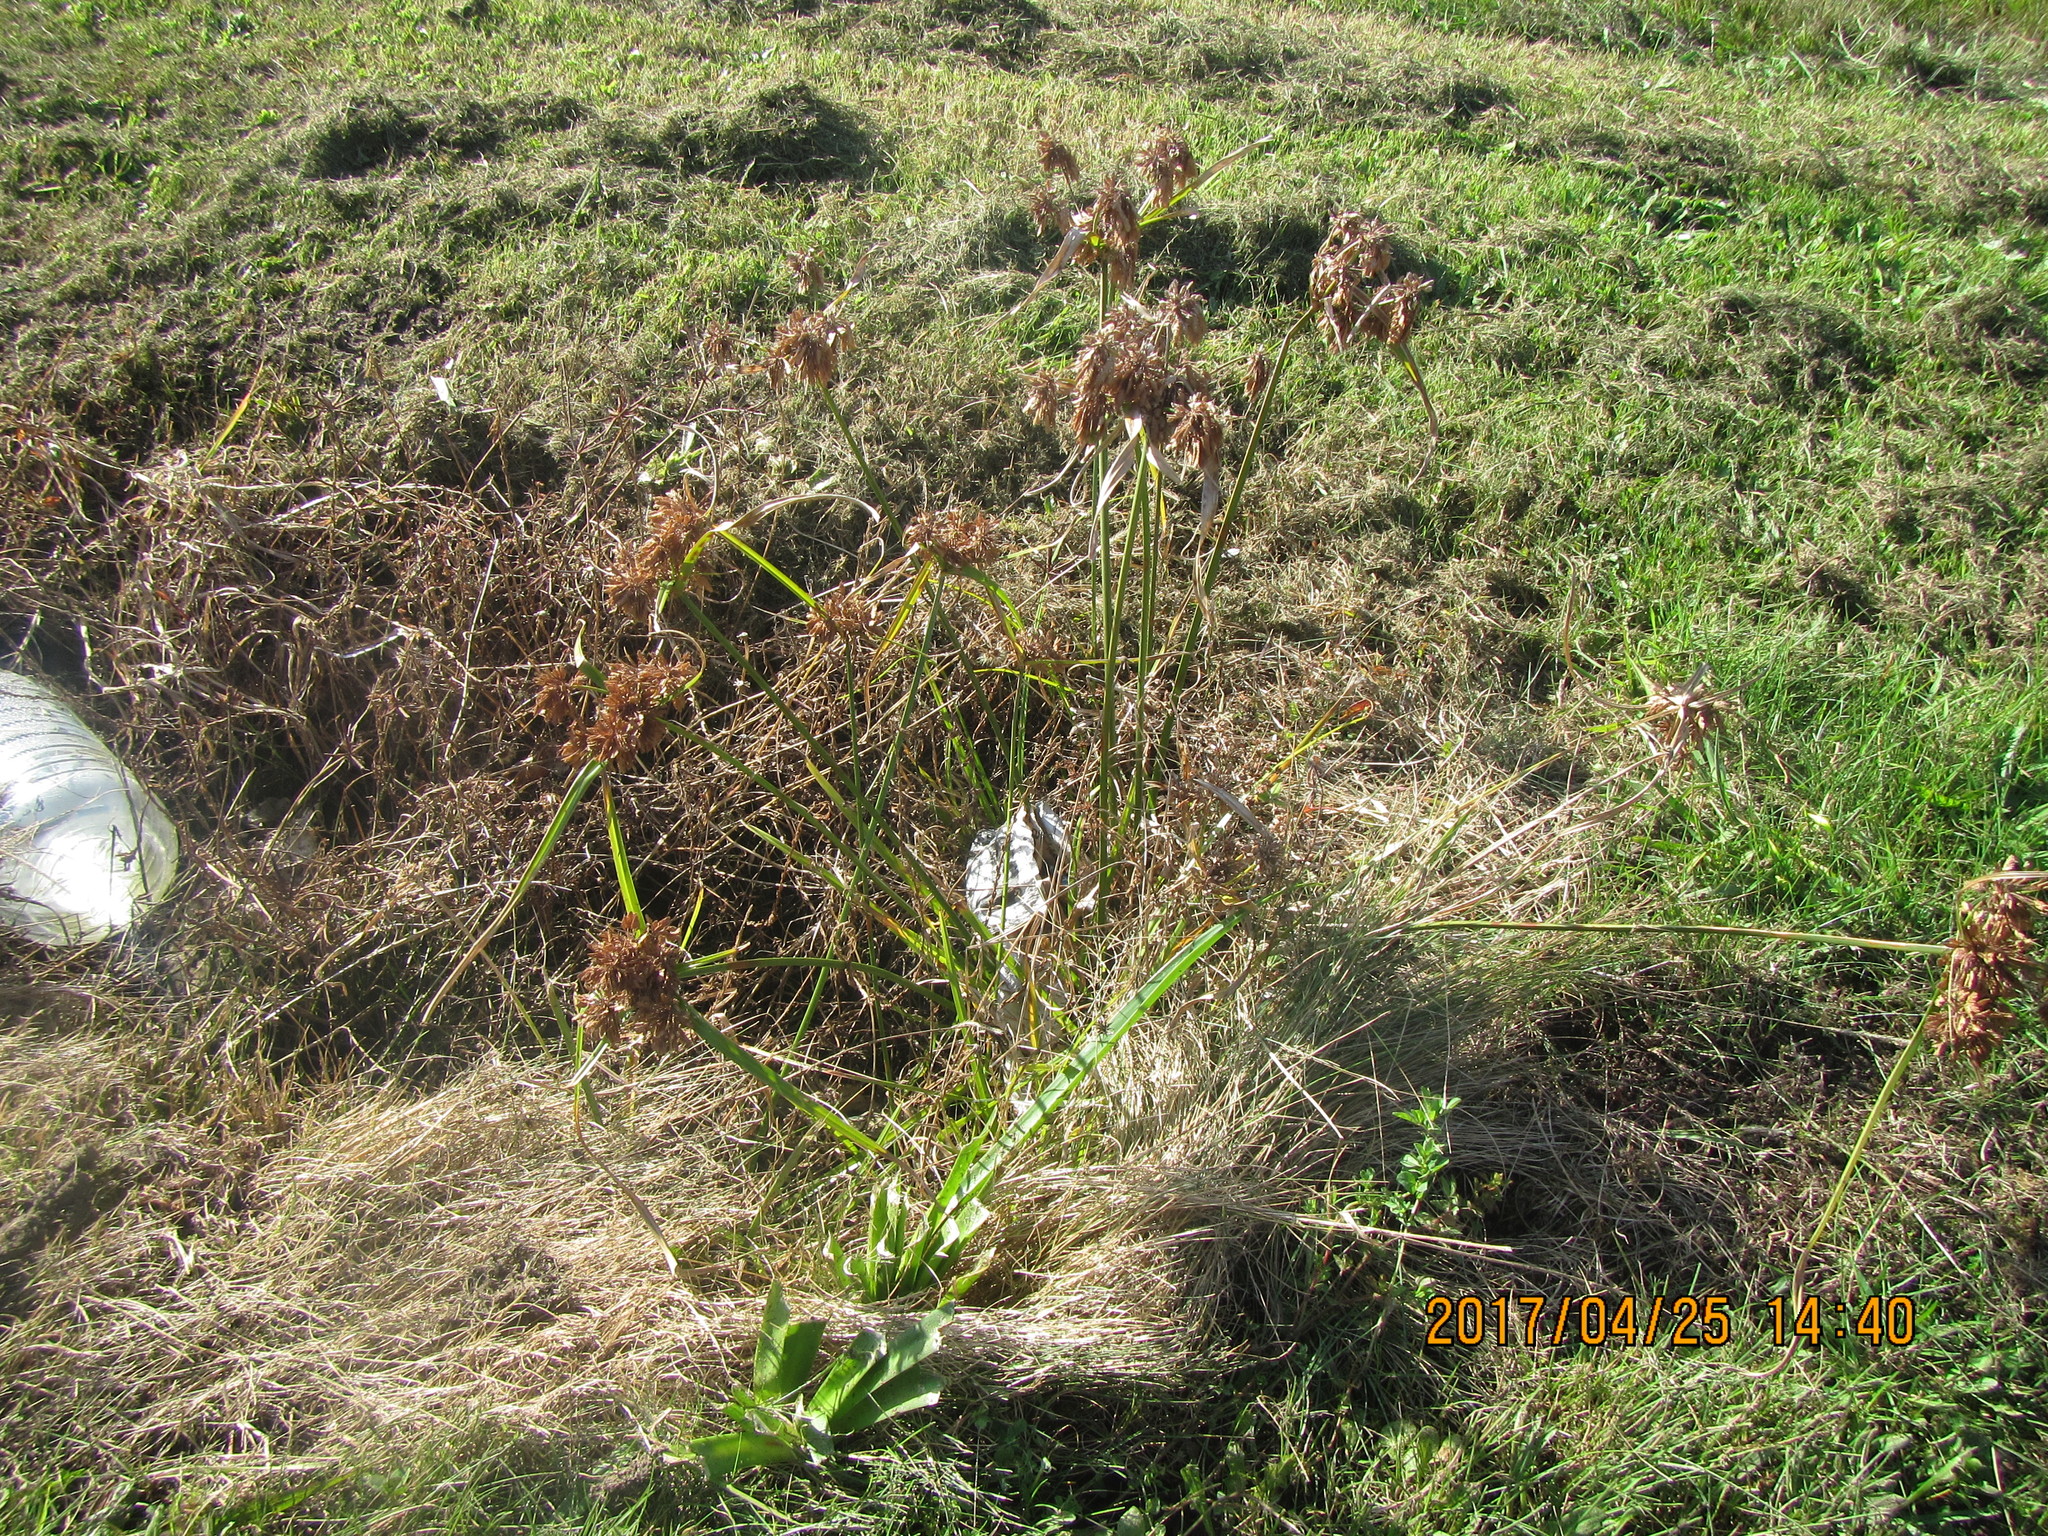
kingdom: Plantae
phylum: Tracheophyta
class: Liliopsida
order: Poales
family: Cyperaceae
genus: Cyperus
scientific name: Cyperus eragrostis
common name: Tall flatsedge
